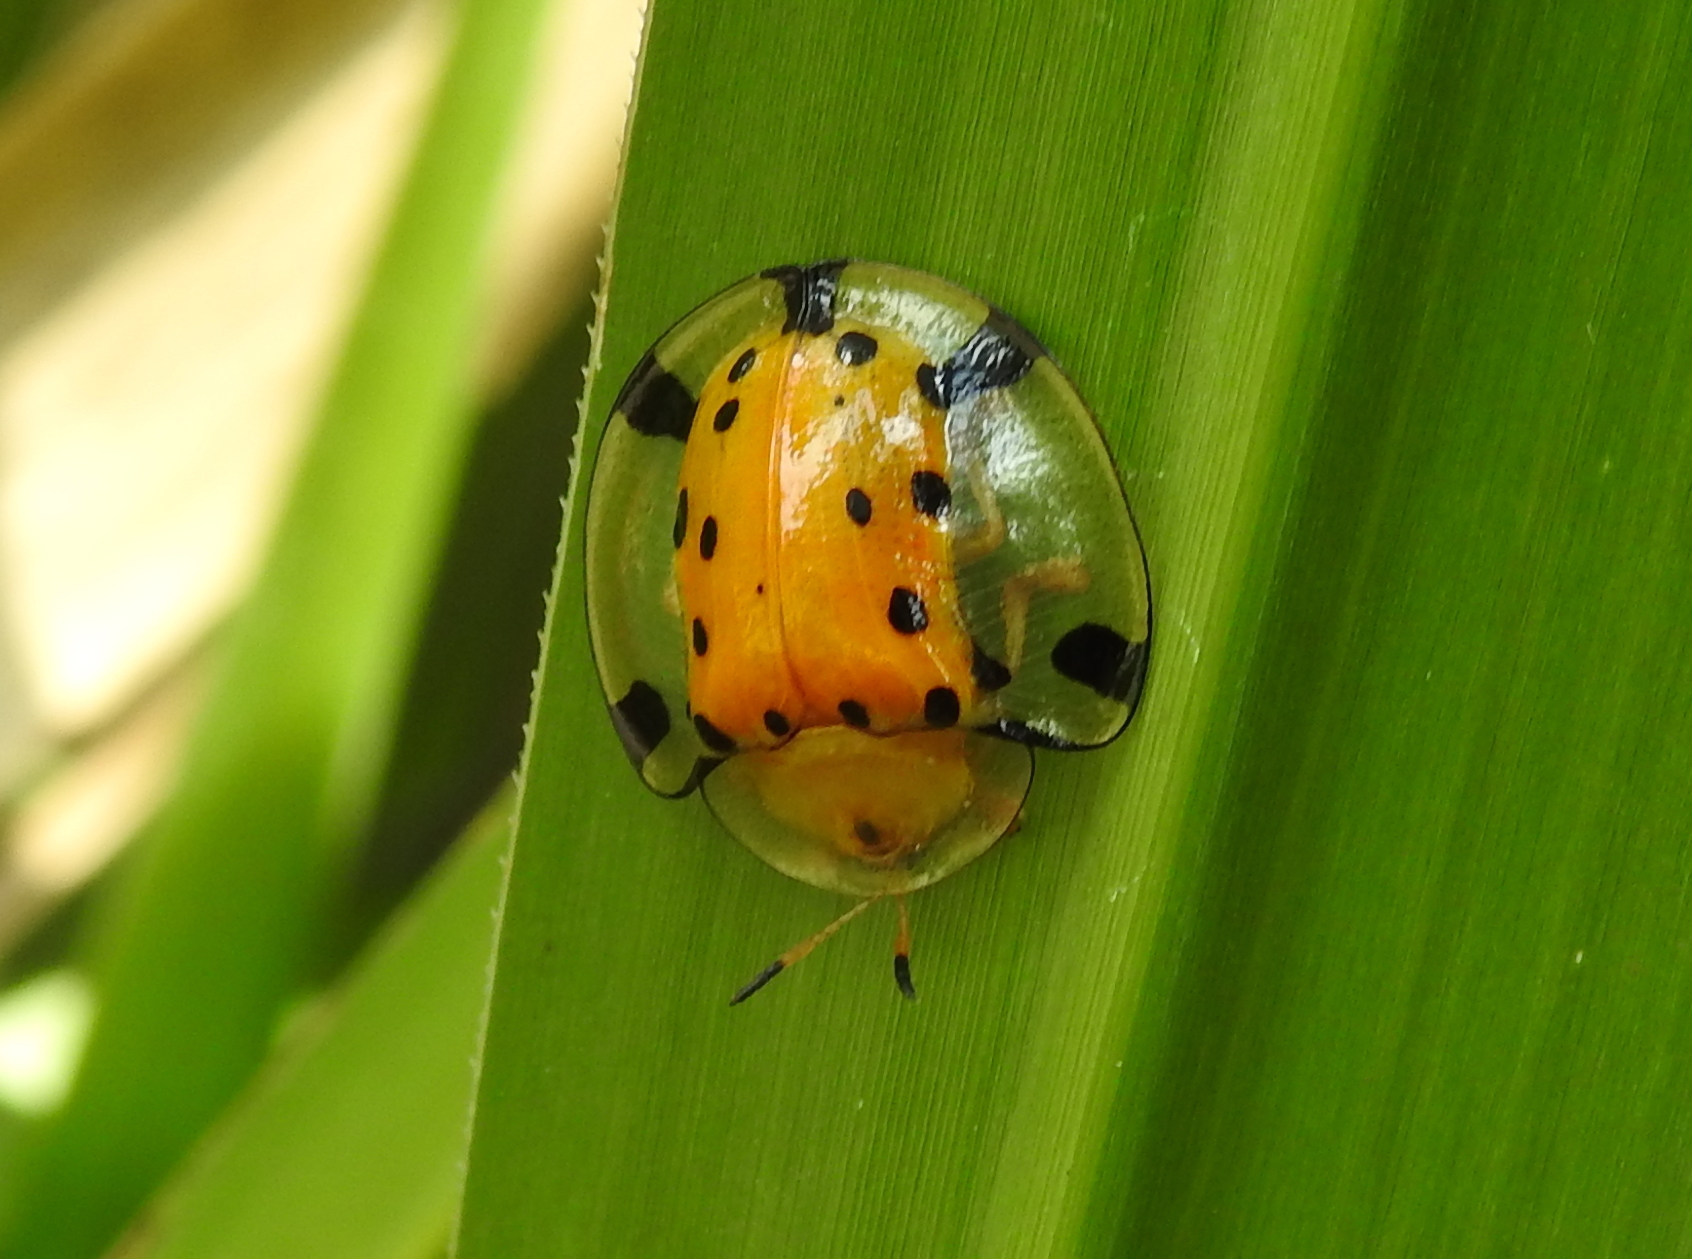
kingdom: Animalia
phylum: Arthropoda
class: Insecta
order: Coleoptera
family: Chrysomelidae
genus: Aspidimorpha
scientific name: Aspidimorpha miliaris
